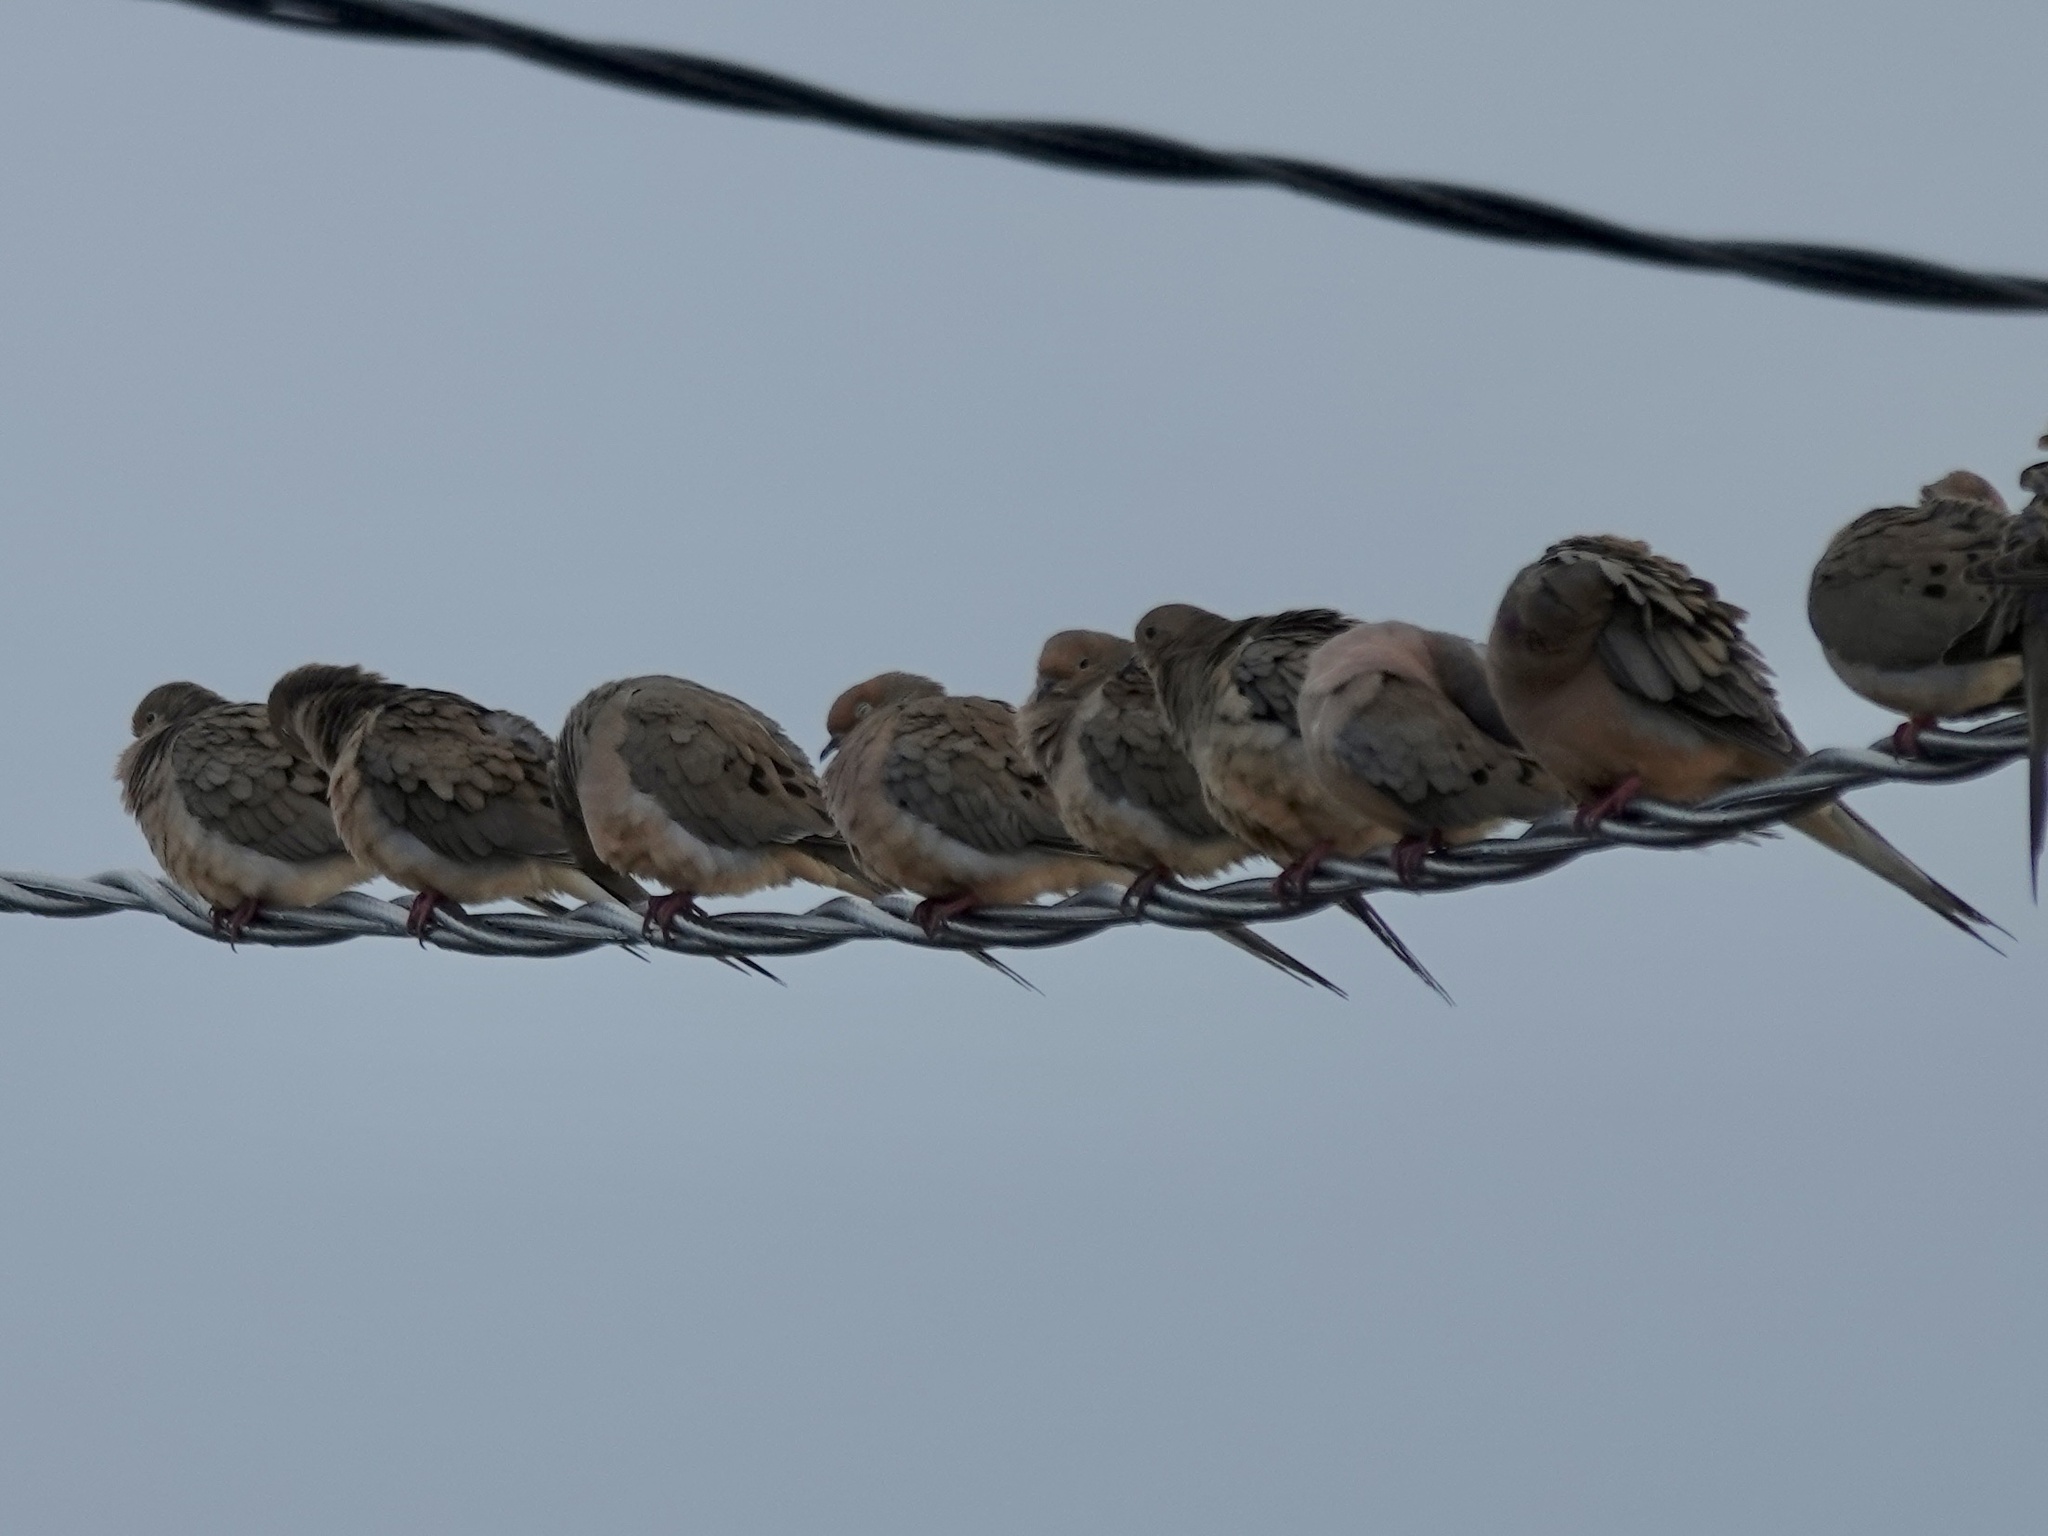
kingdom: Animalia
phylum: Chordata
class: Aves
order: Columbiformes
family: Columbidae
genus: Zenaida
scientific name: Zenaida macroura
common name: Mourning dove
